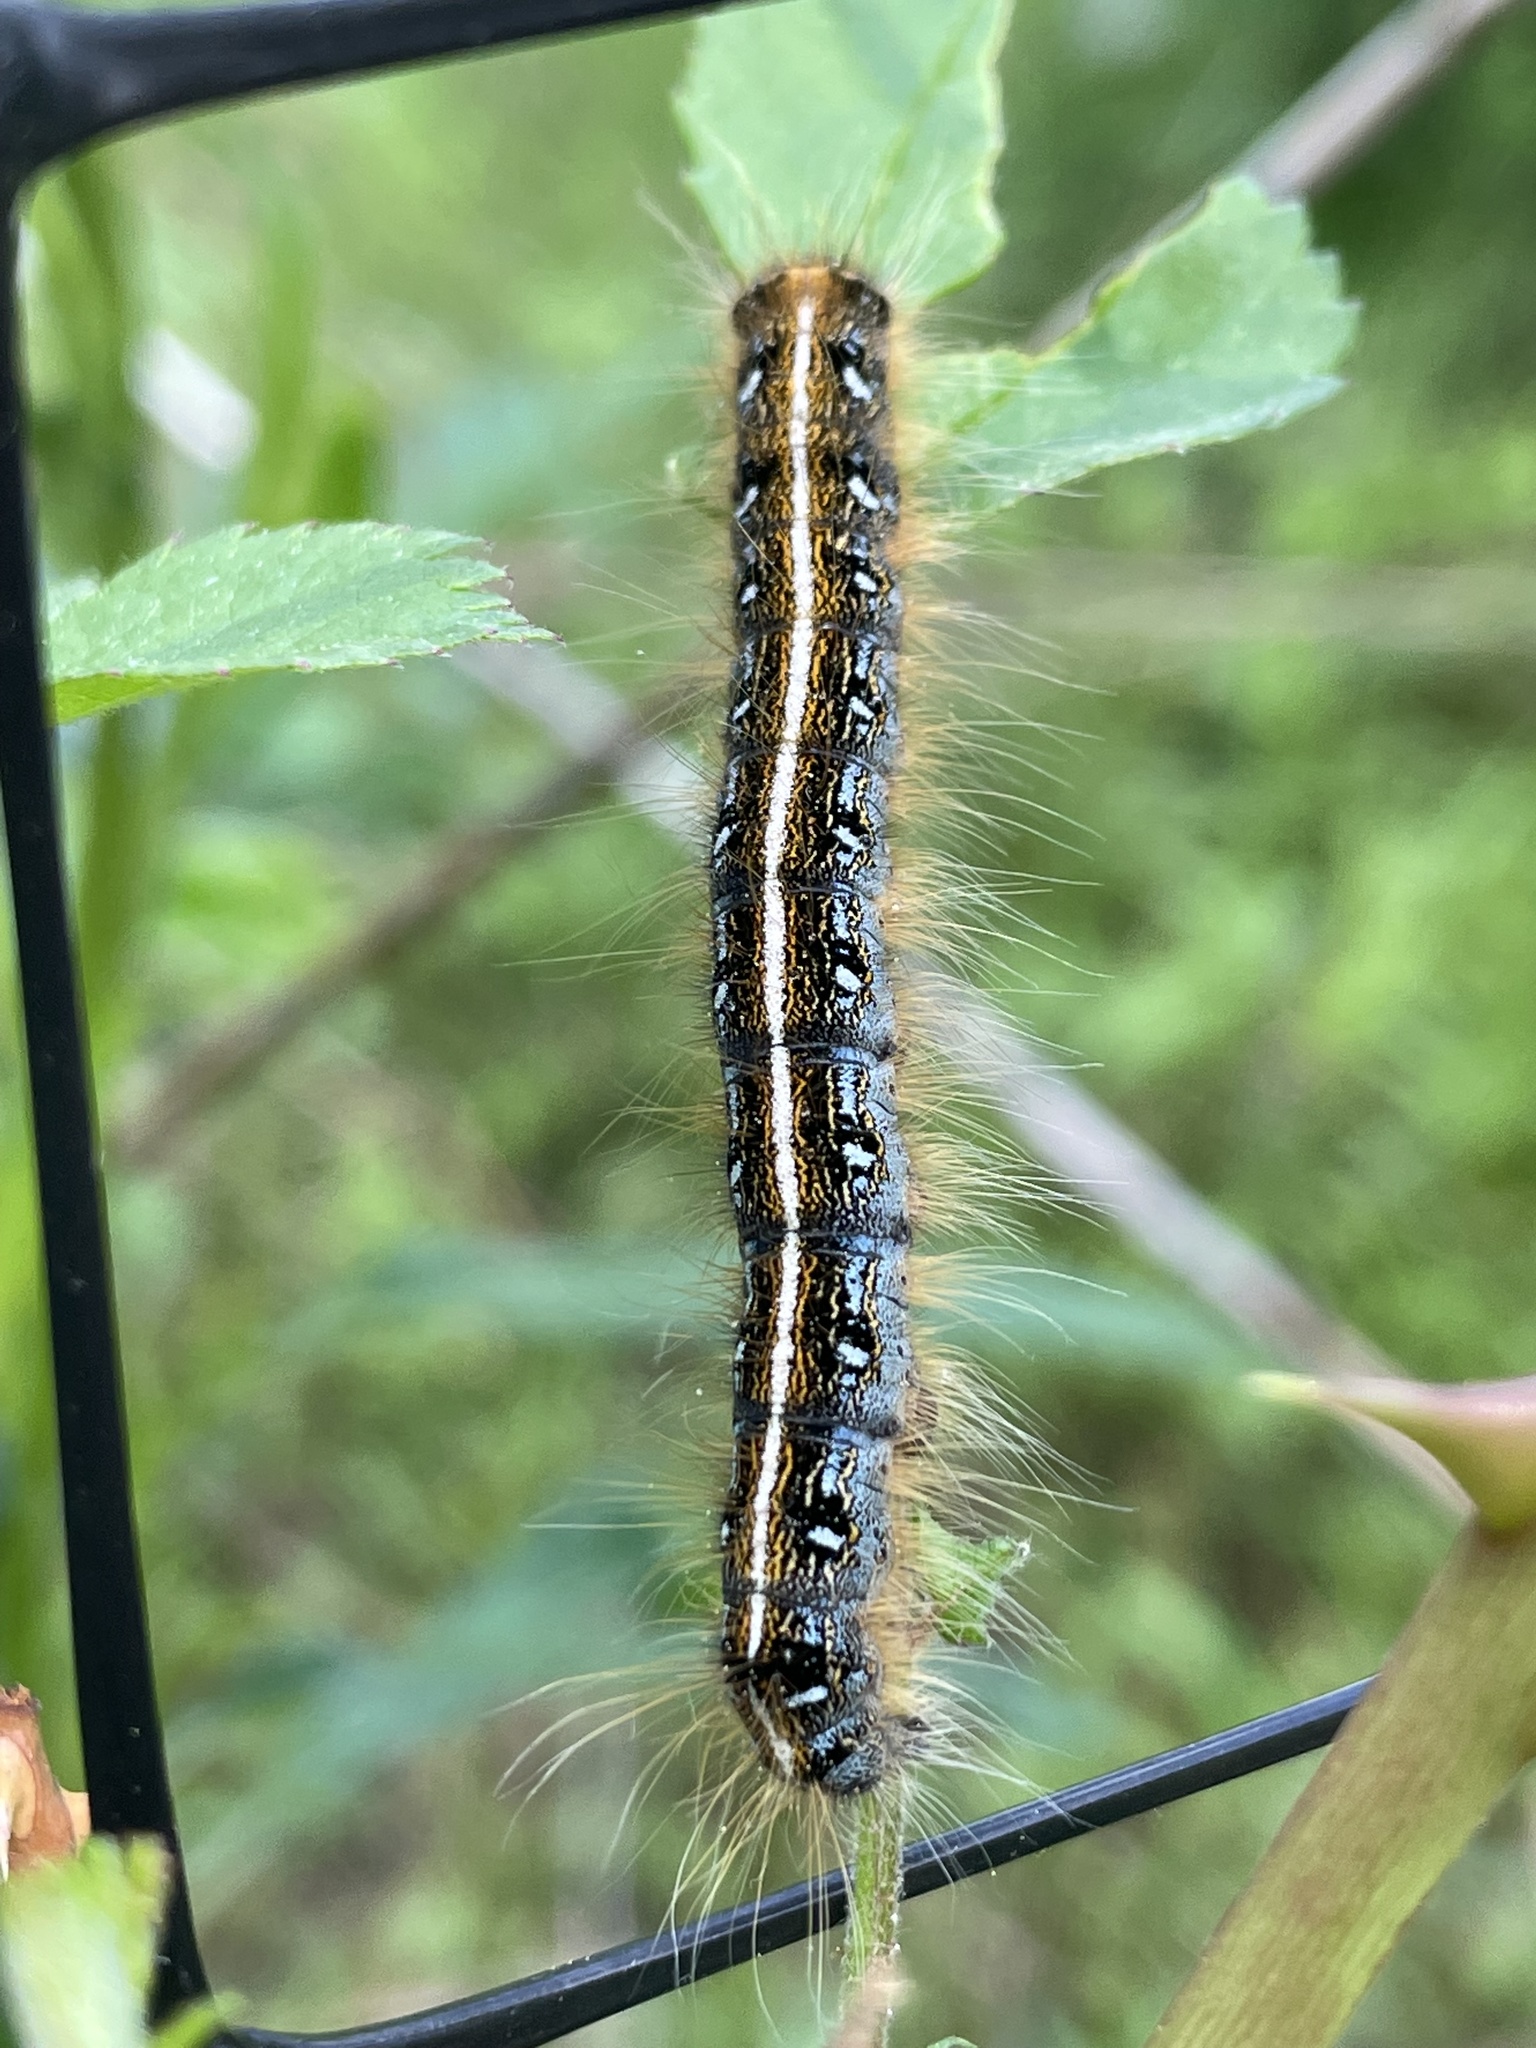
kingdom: Animalia
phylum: Arthropoda
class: Insecta
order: Lepidoptera
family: Lasiocampidae
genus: Malacosoma
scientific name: Malacosoma americana
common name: Eastern tent caterpillar moth
